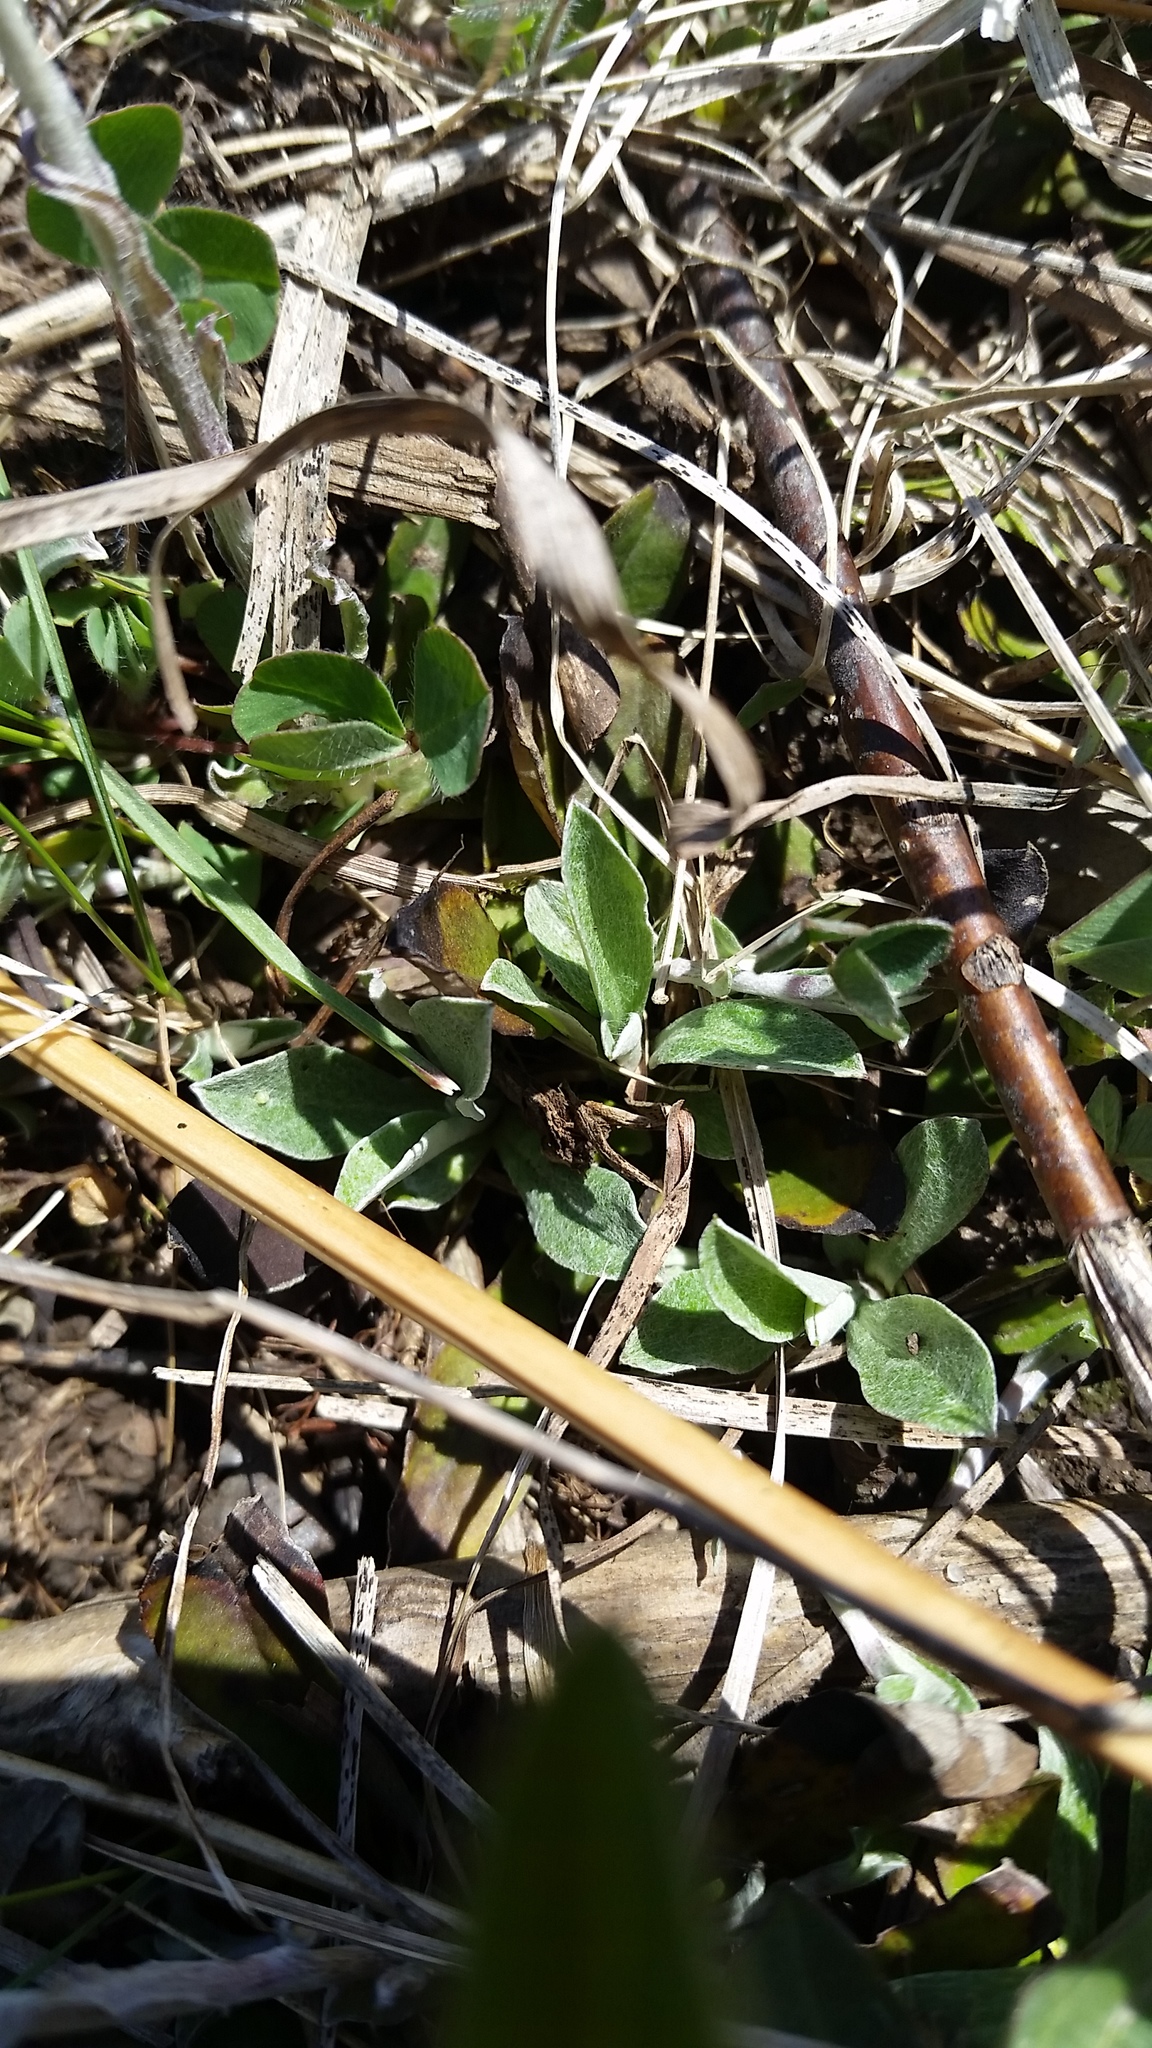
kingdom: Plantae
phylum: Tracheophyta
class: Magnoliopsida
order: Asterales
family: Asteraceae
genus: Antennaria
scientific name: Antennaria neglecta
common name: Field pussytoes
